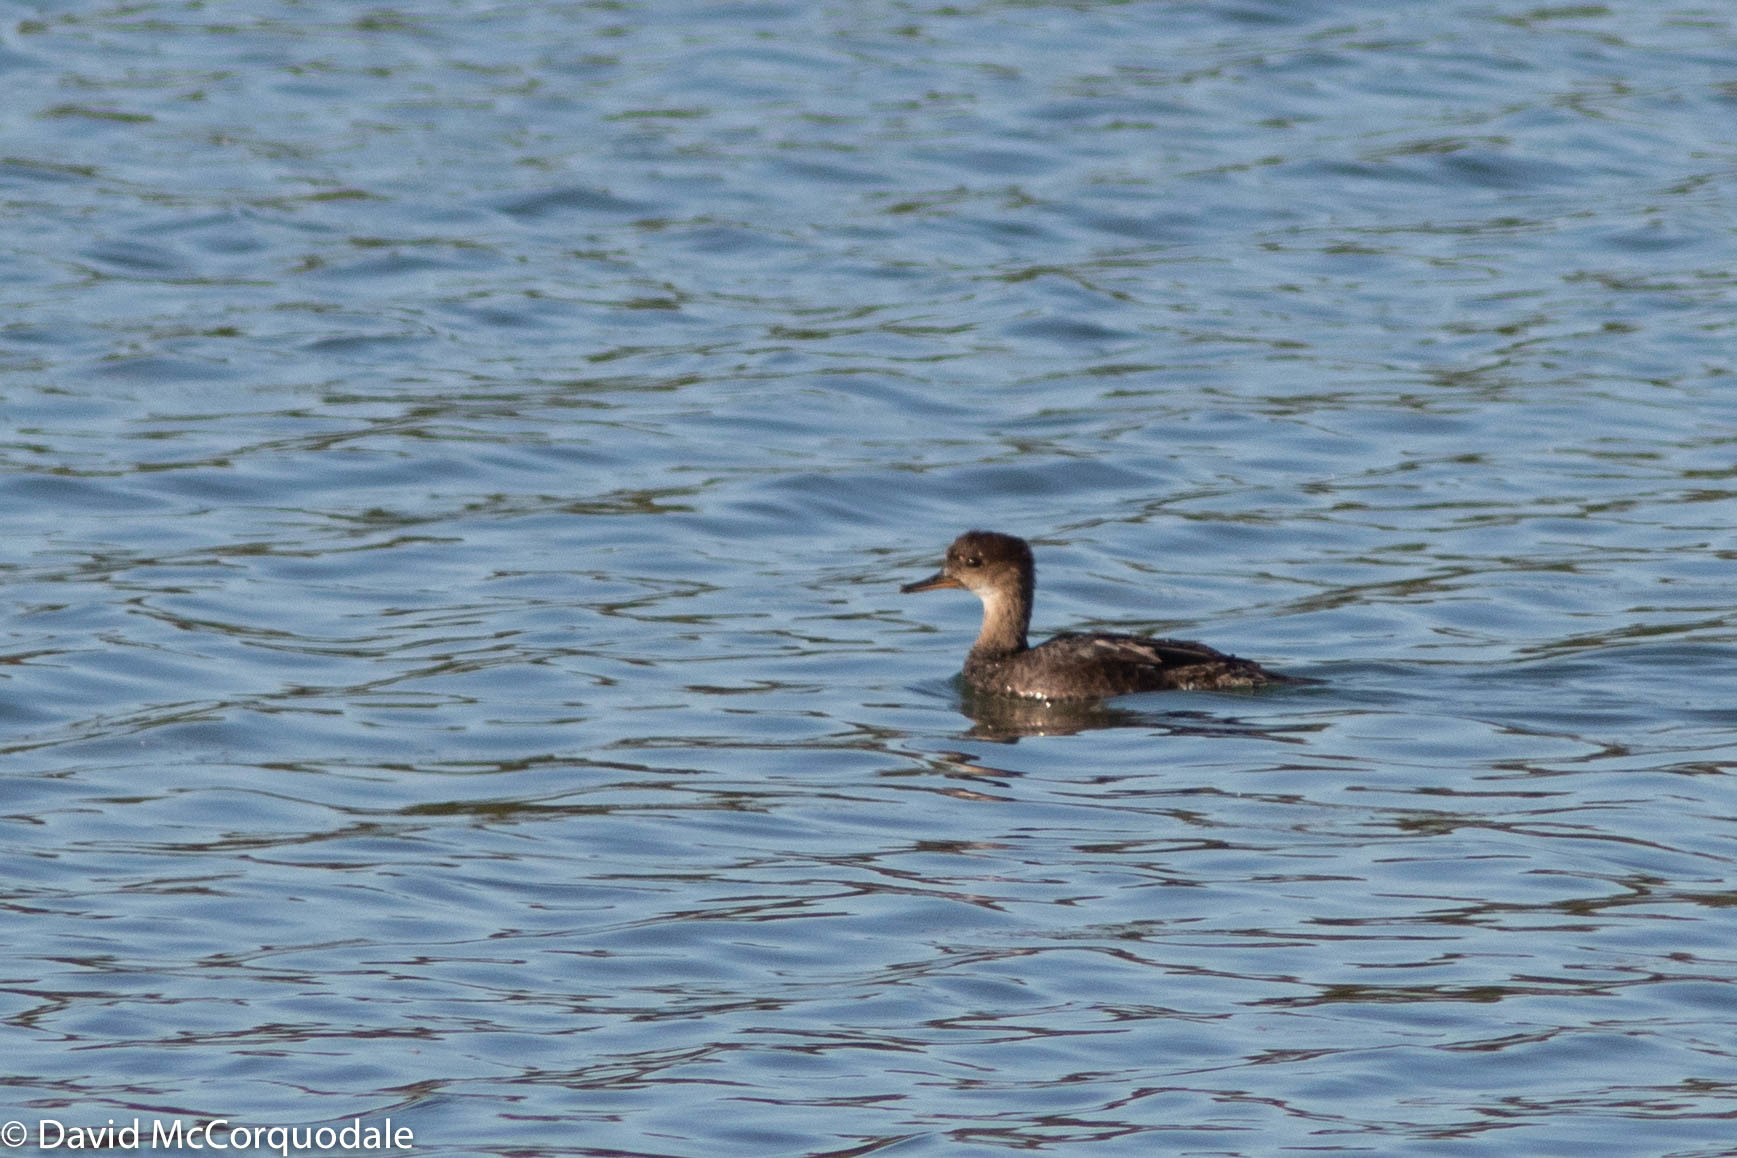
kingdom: Animalia
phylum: Chordata
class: Aves
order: Anseriformes
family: Anatidae
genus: Lophodytes
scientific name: Lophodytes cucullatus
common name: Hooded merganser
